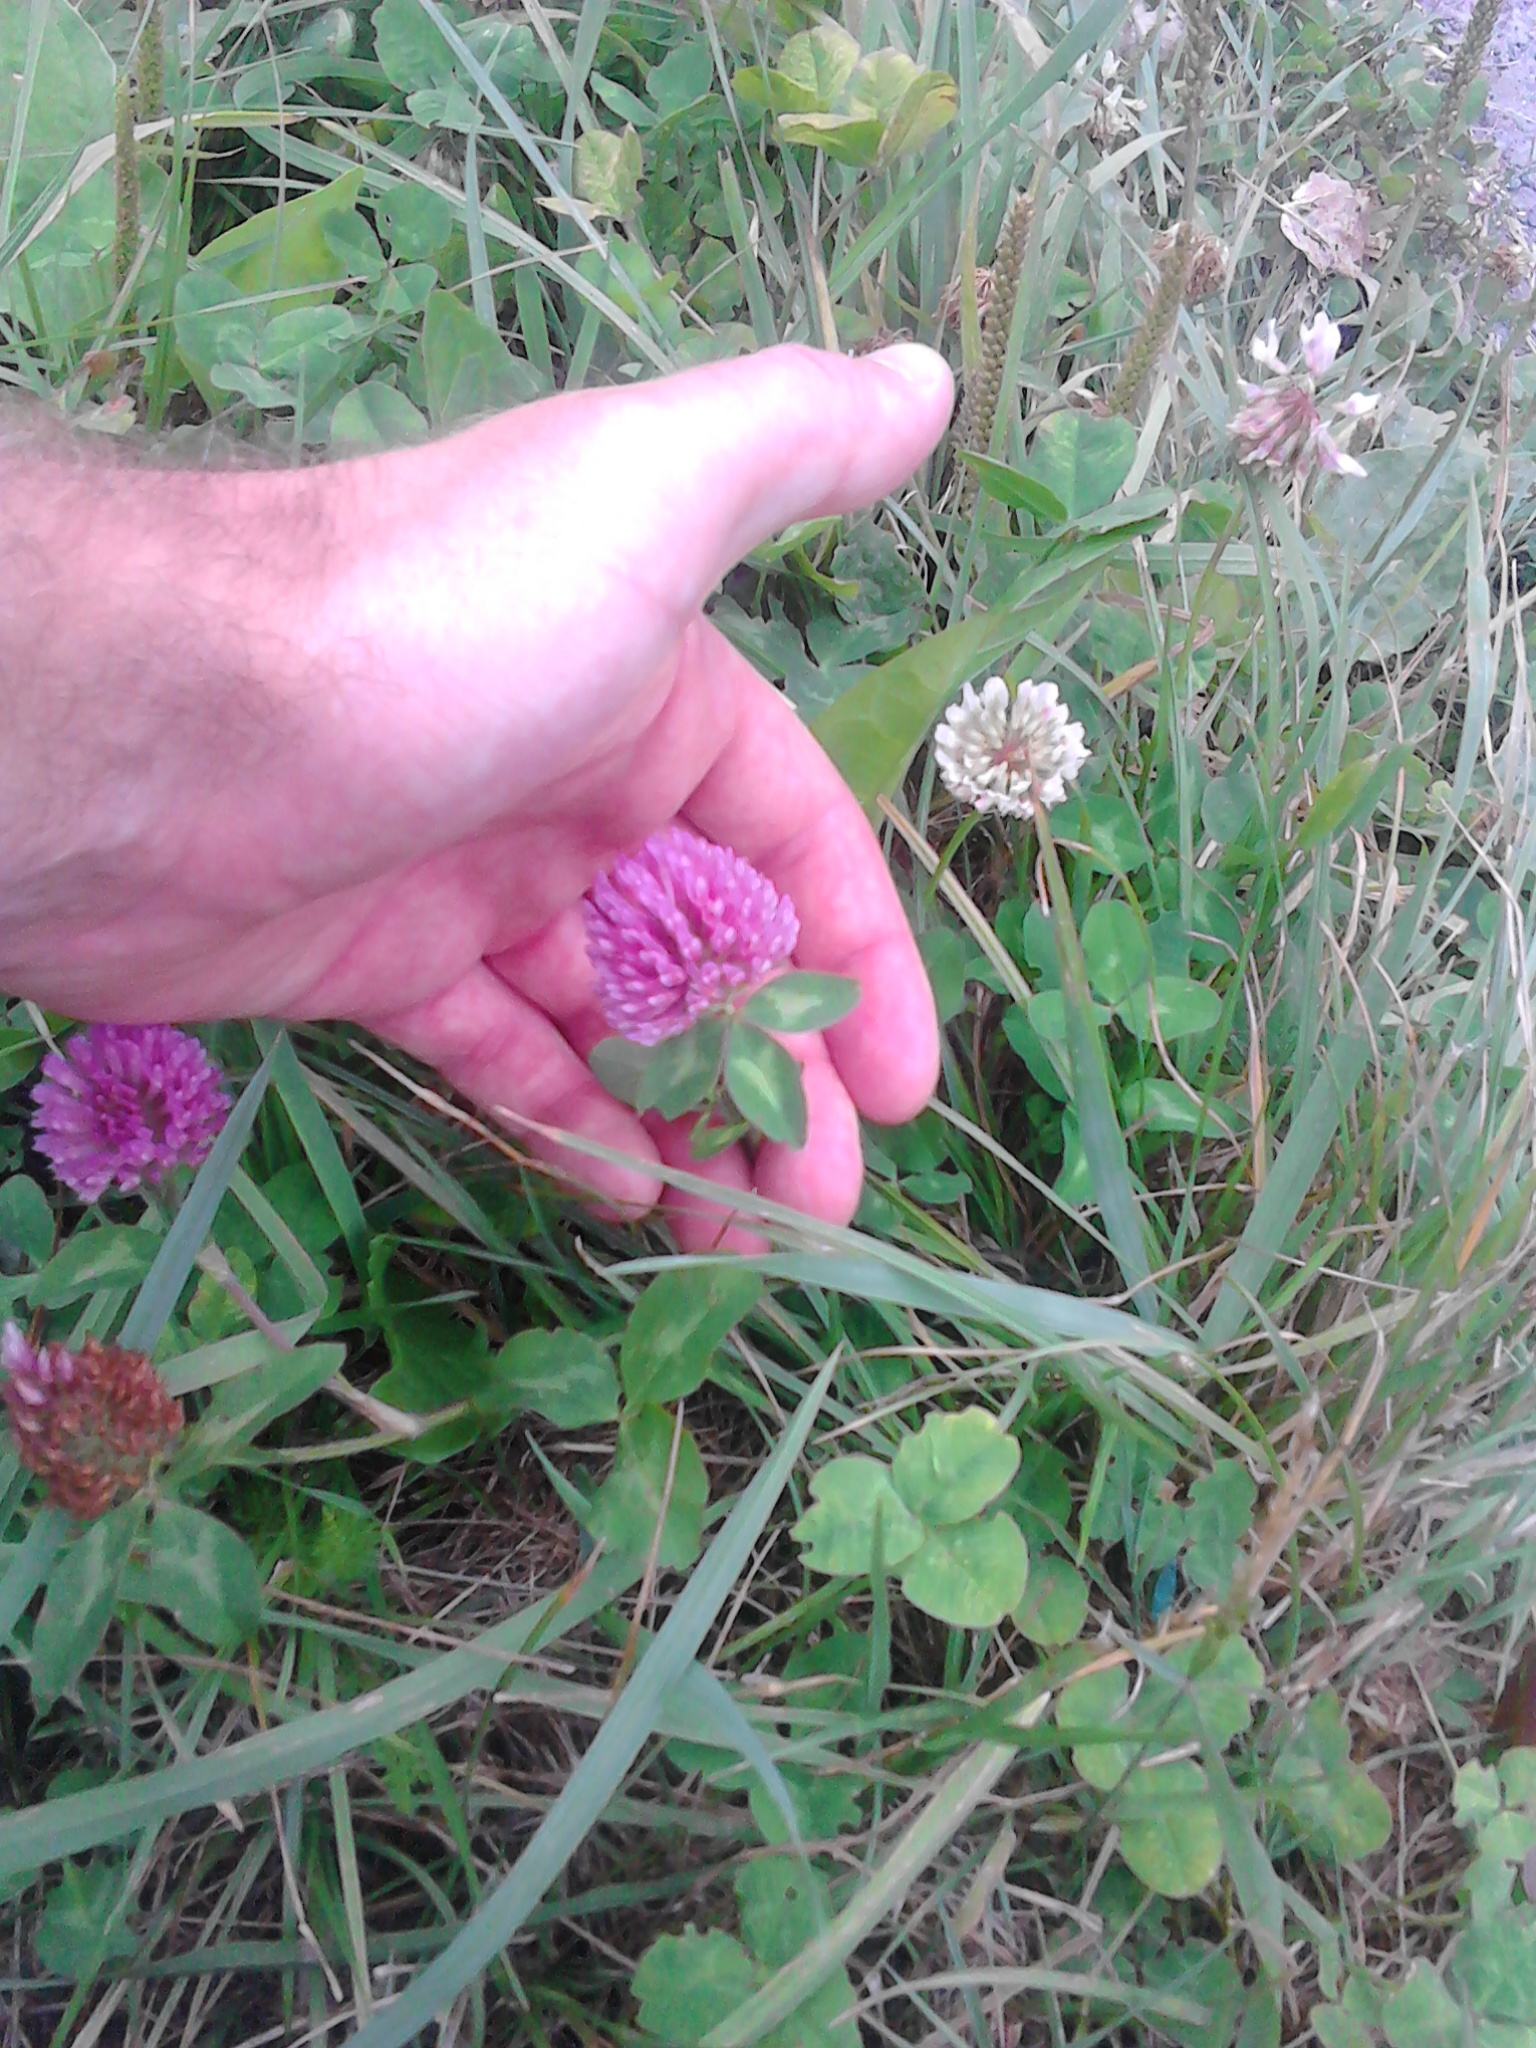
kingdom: Plantae
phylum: Tracheophyta
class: Magnoliopsida
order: Fabales
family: Fabaceae
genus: Trifolium
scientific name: Trifolium pratense
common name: Red clover
